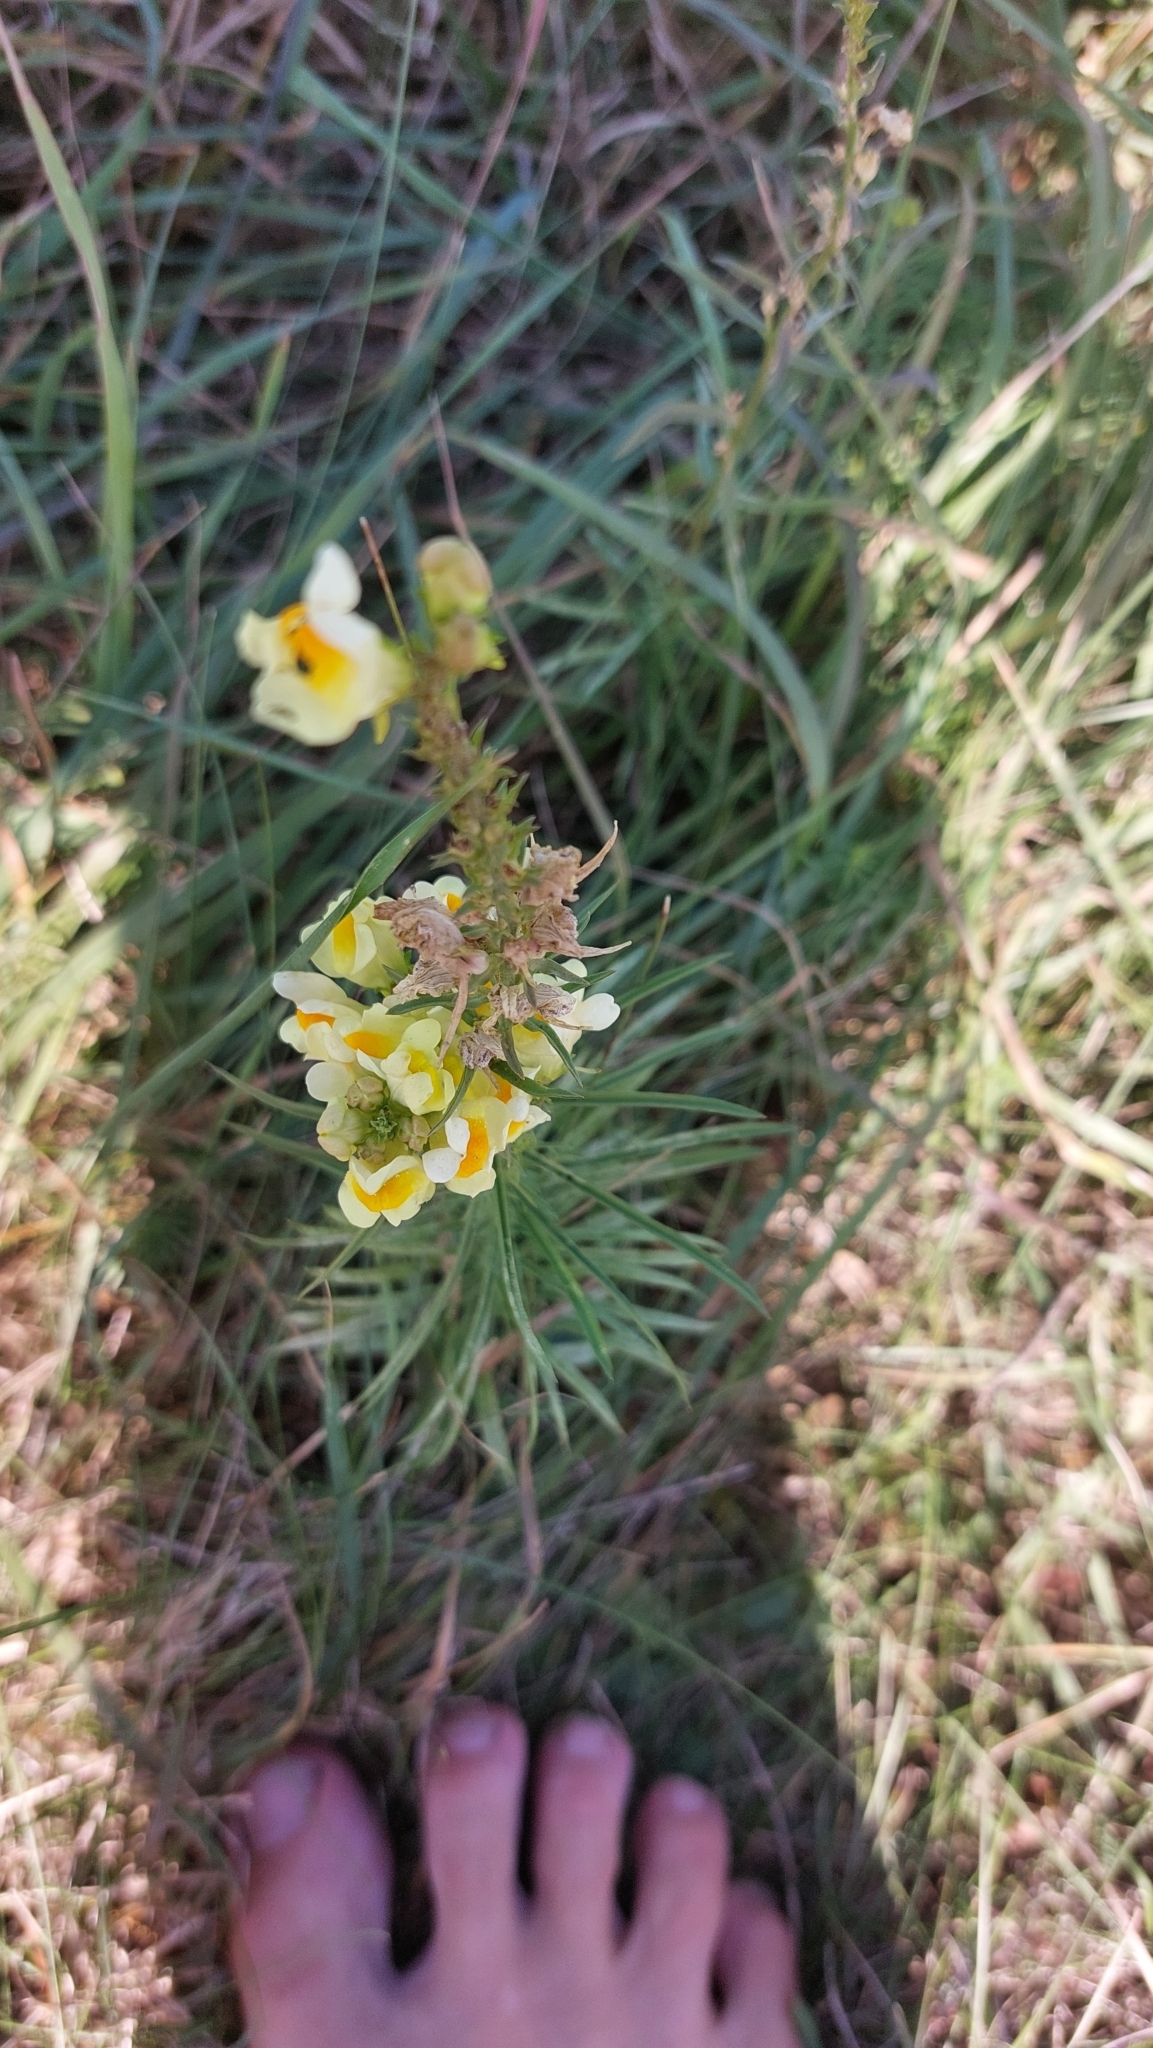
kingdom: Plantae
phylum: Tracheophyta
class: Magnoliopsida
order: Lamiales
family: Plantaginaceae
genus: Linaria
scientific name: Linaria vulgaris
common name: Butter and eggs
